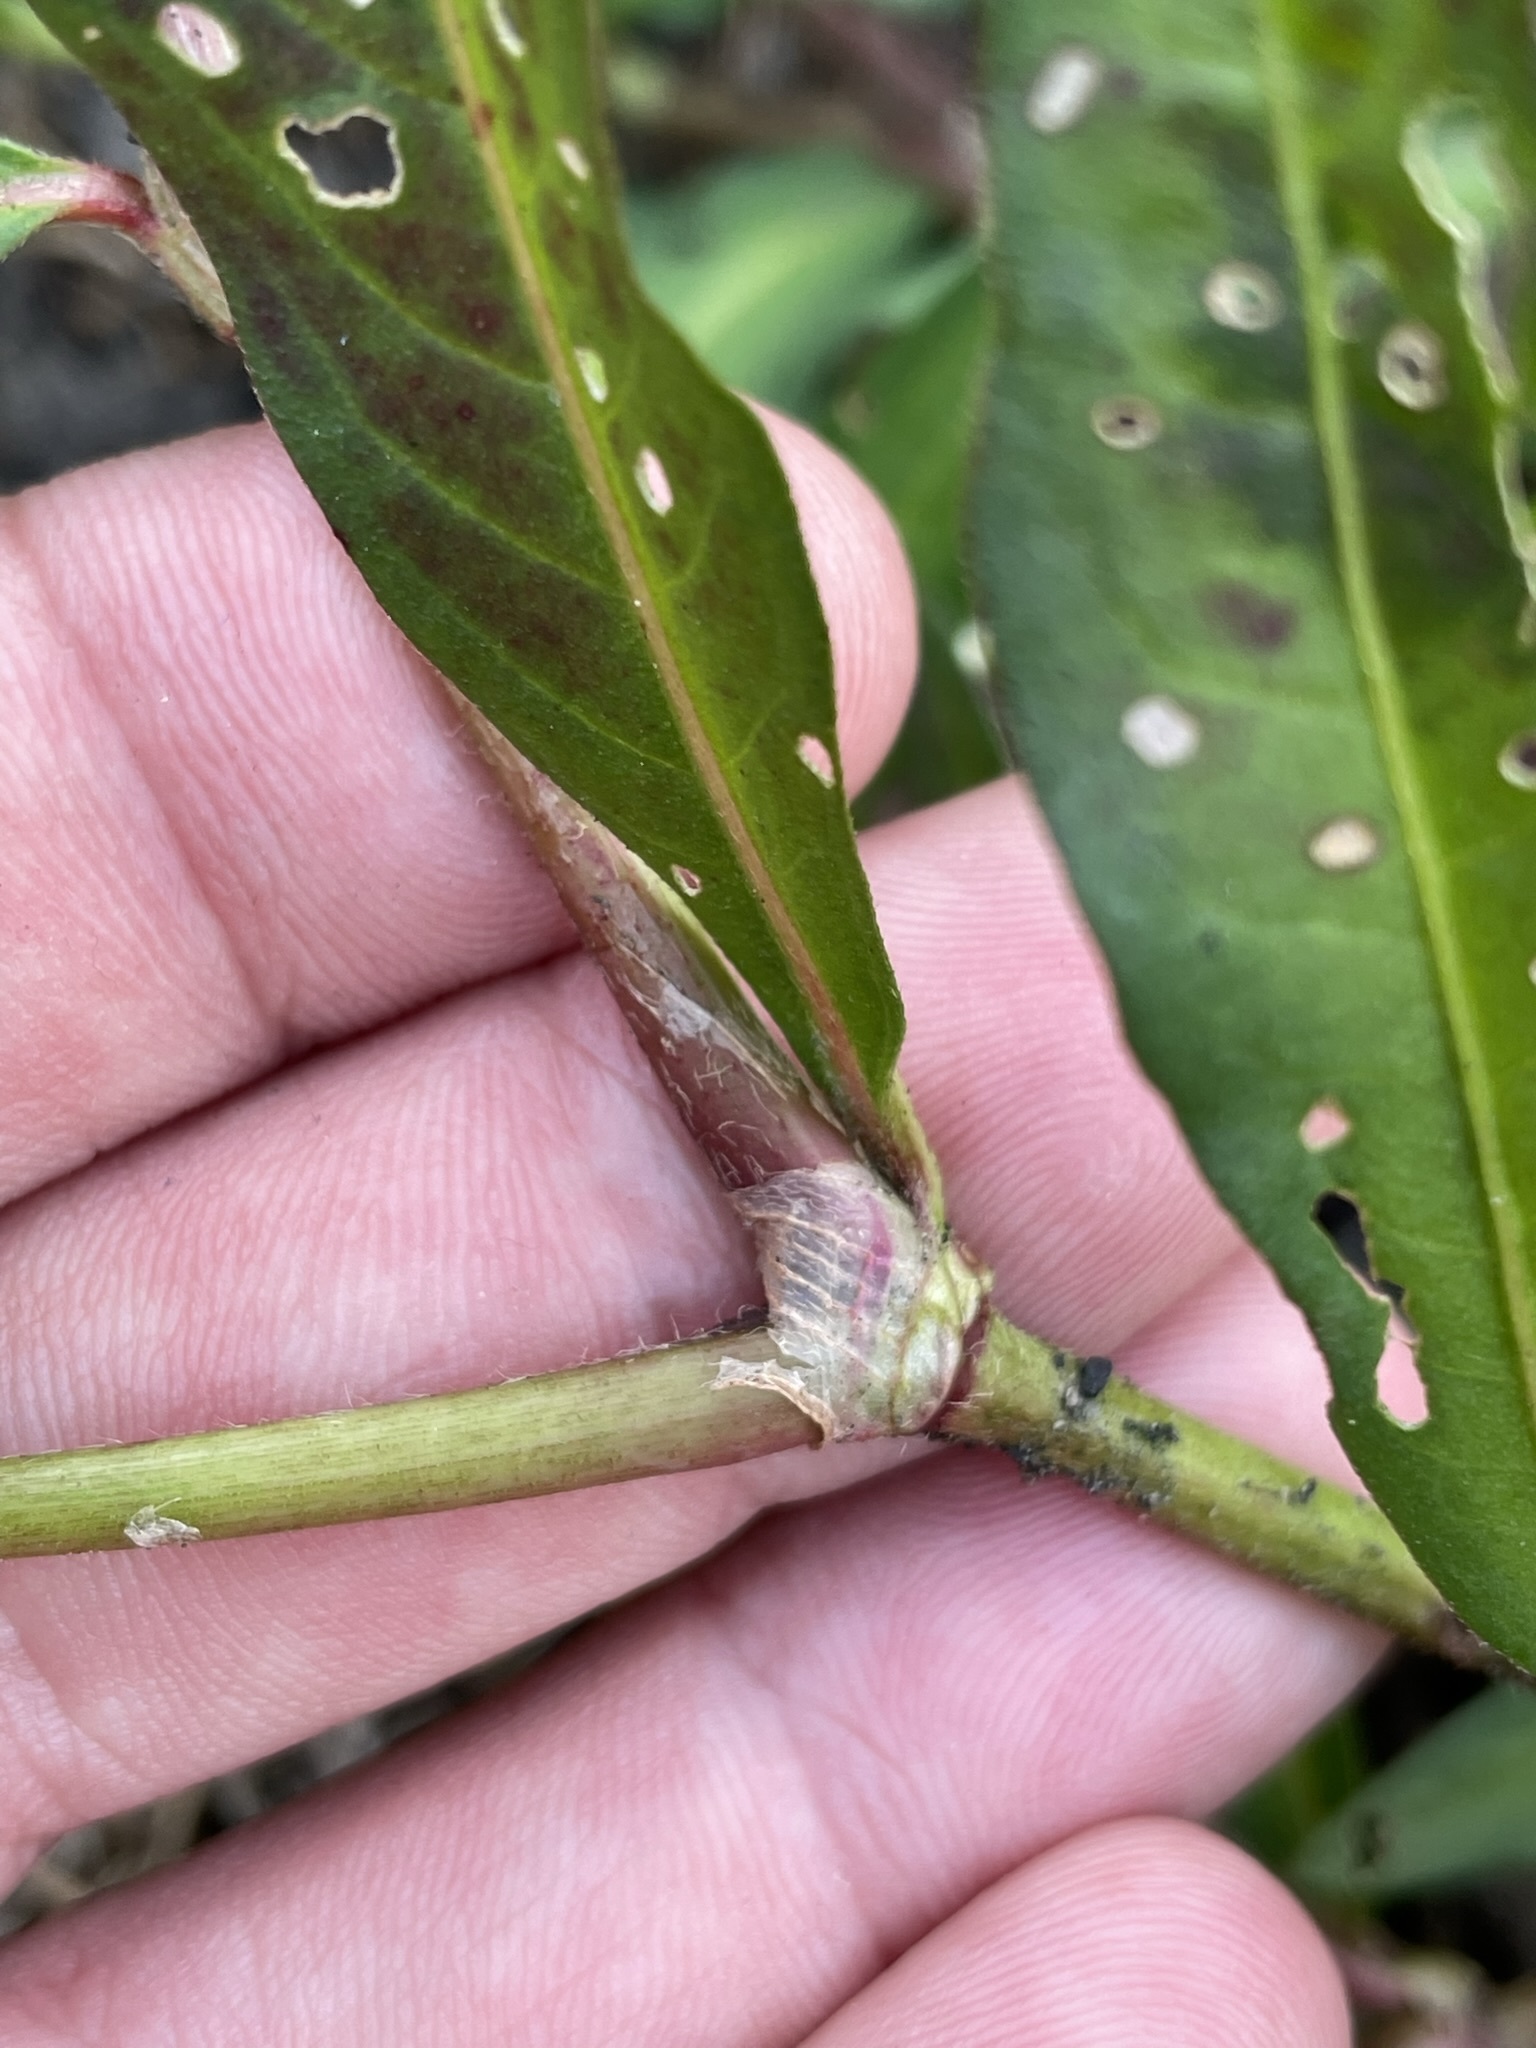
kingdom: Plantae
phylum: Tracheophyta
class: Magnoliopsida
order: Caryophyllales
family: Polygonaceae
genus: Persicaria
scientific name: Persicaria maculosa
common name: Redshank
